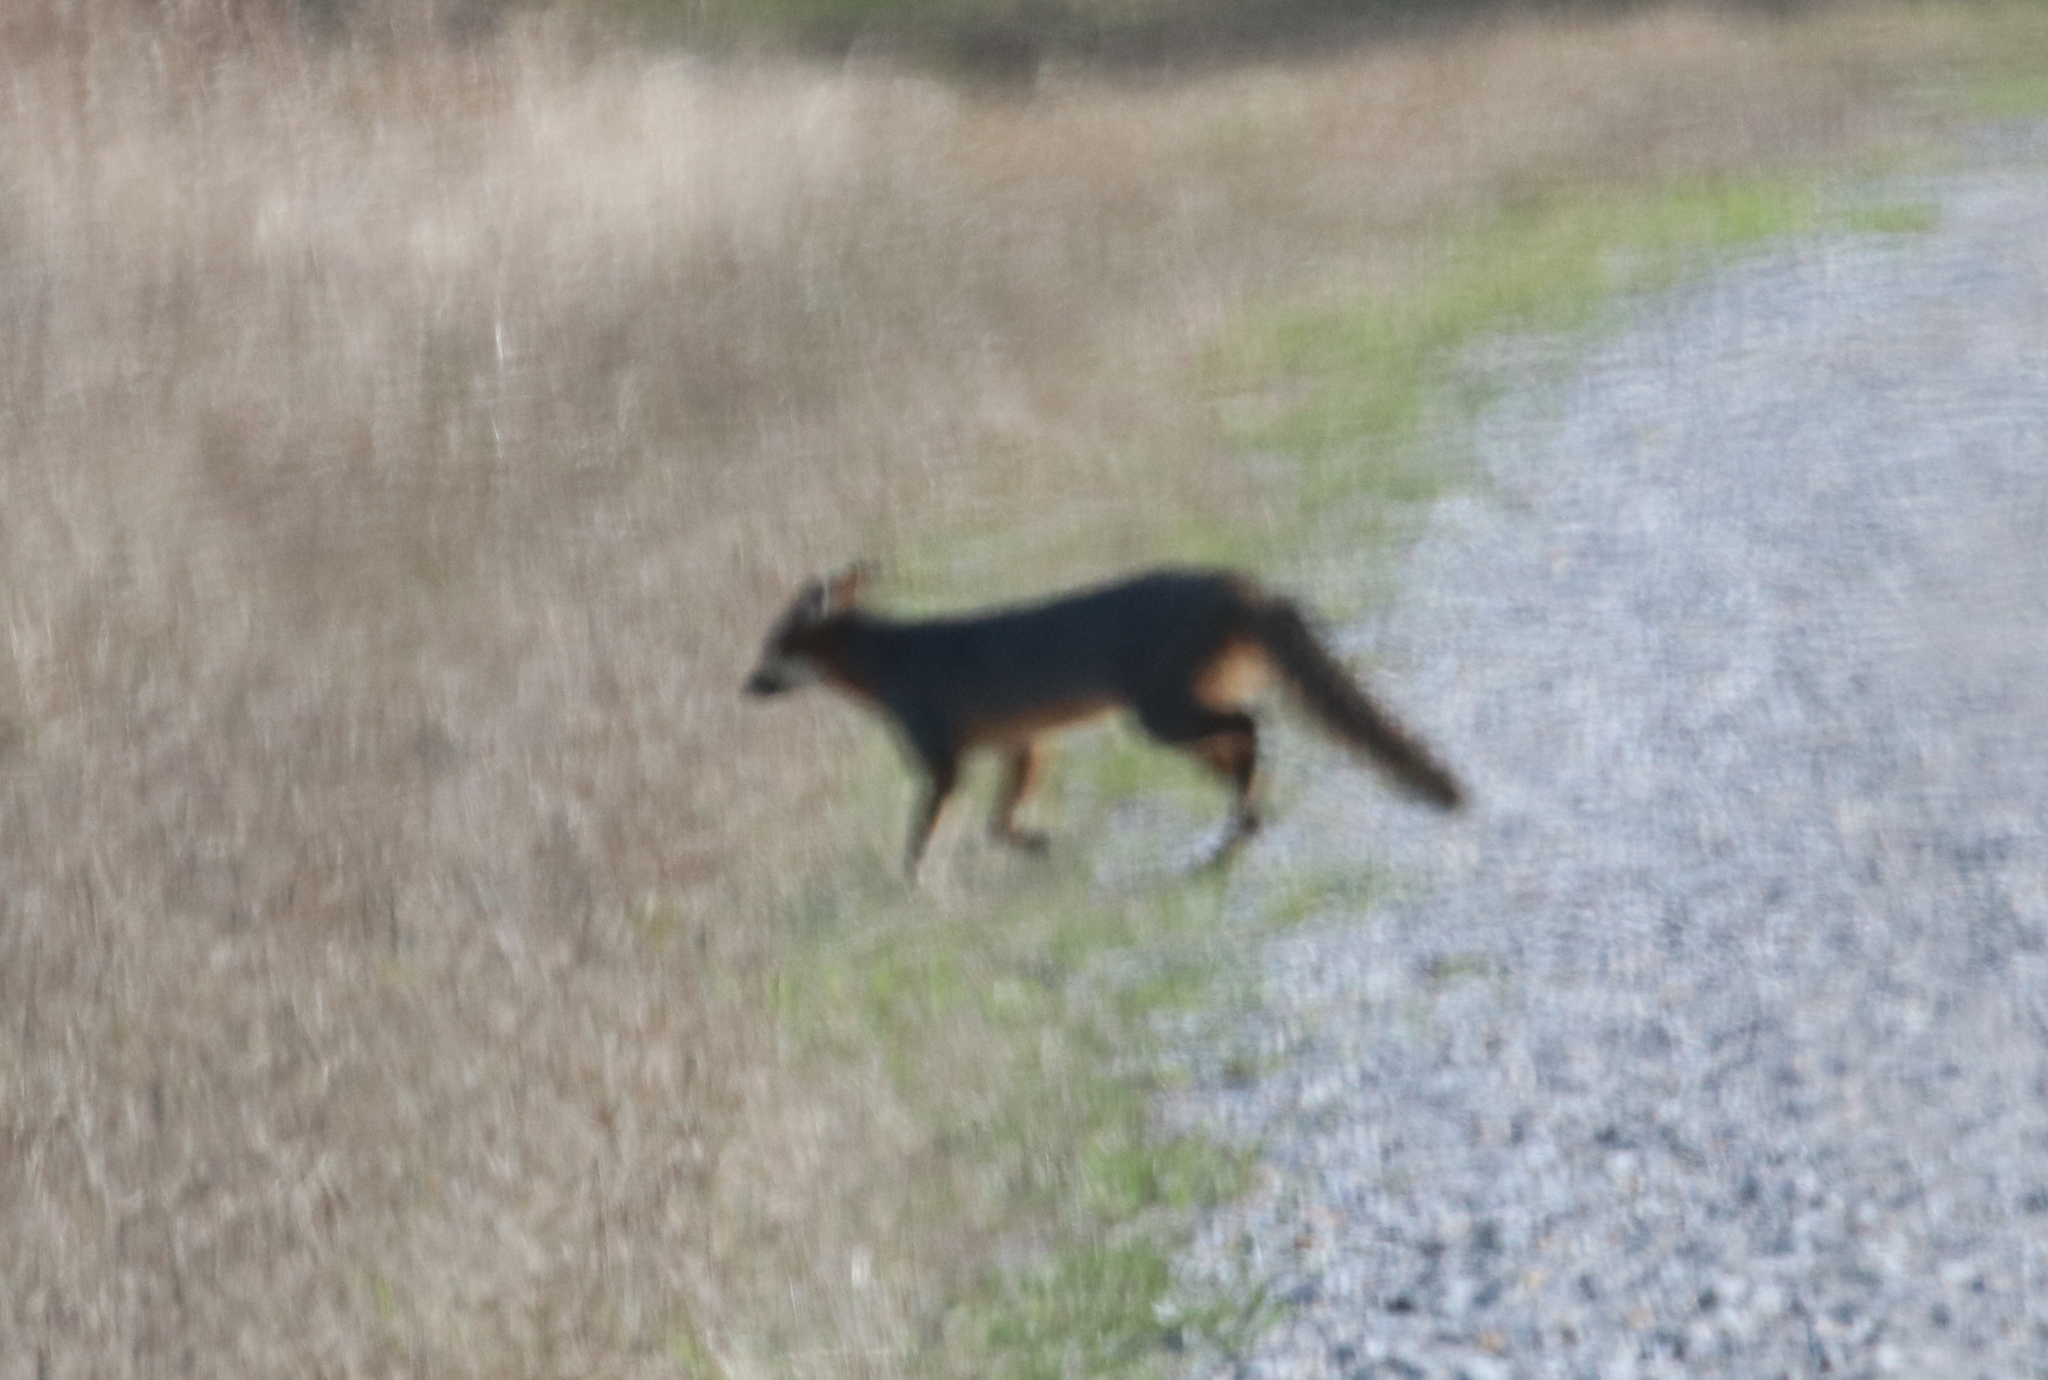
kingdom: Animalia
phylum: Chordata
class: Mammalia
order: Carnivora
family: Canidae
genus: Urocyon
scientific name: Urocyon cinereoargenteus
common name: Gray fox
